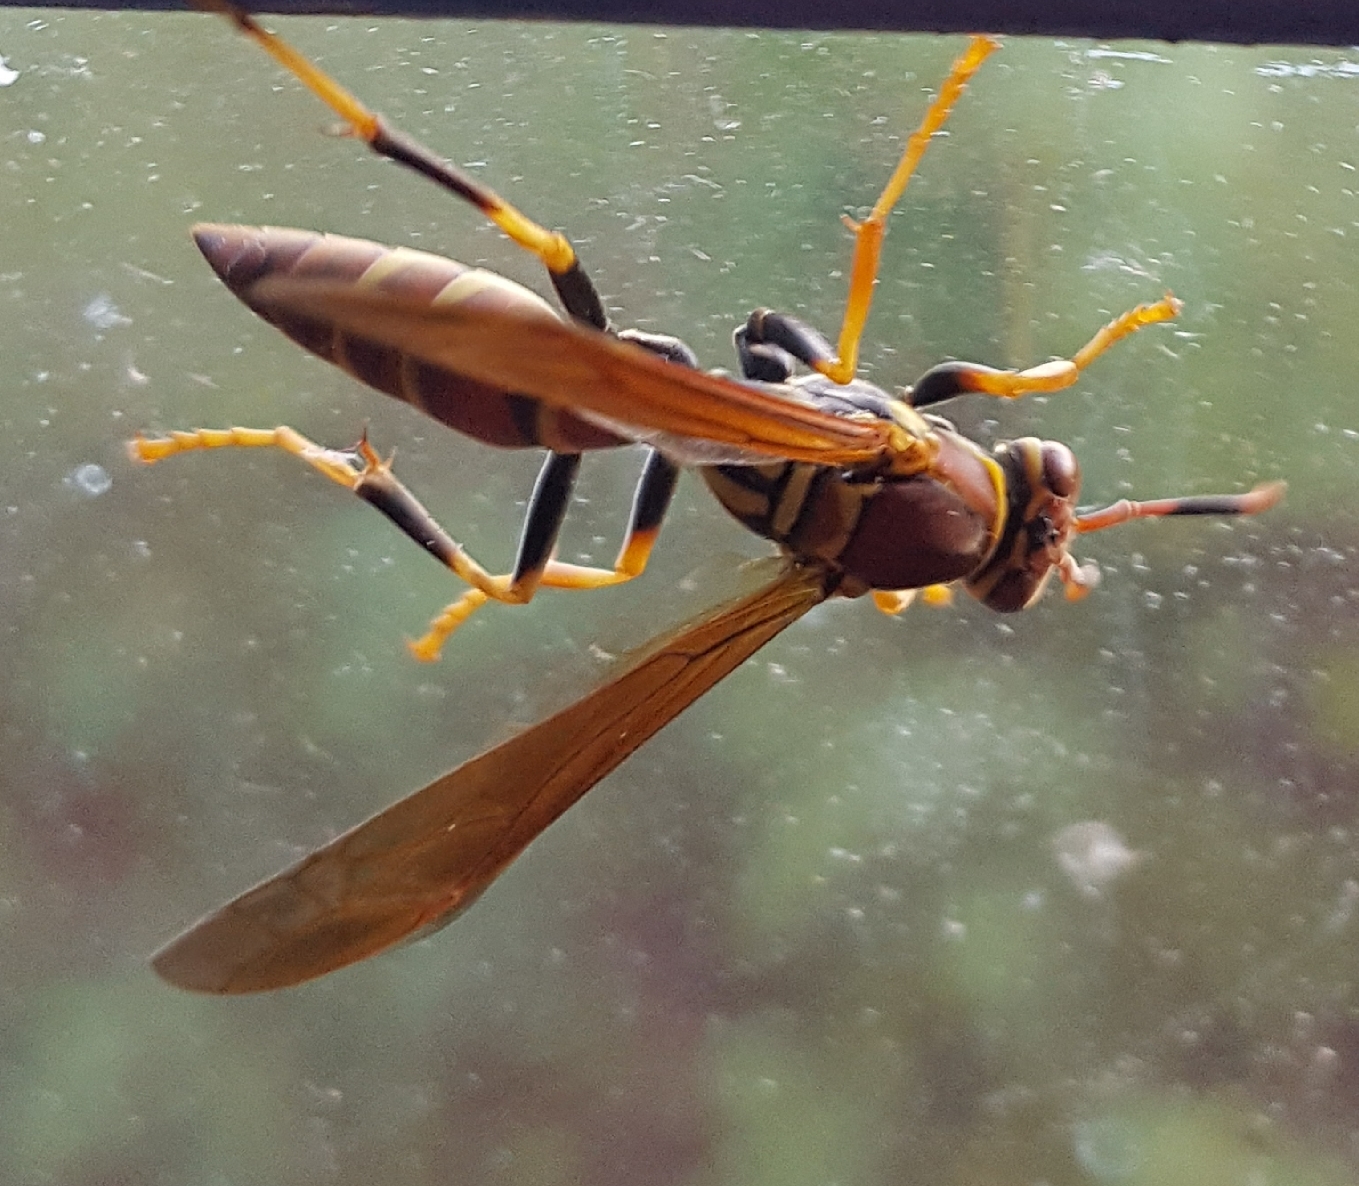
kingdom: Animalia
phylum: Arthropoda
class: Insecta
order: Hymenoptera
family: Eumenidae
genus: Polistes
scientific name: Polistes instabilis
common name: Unstable paper wasp
